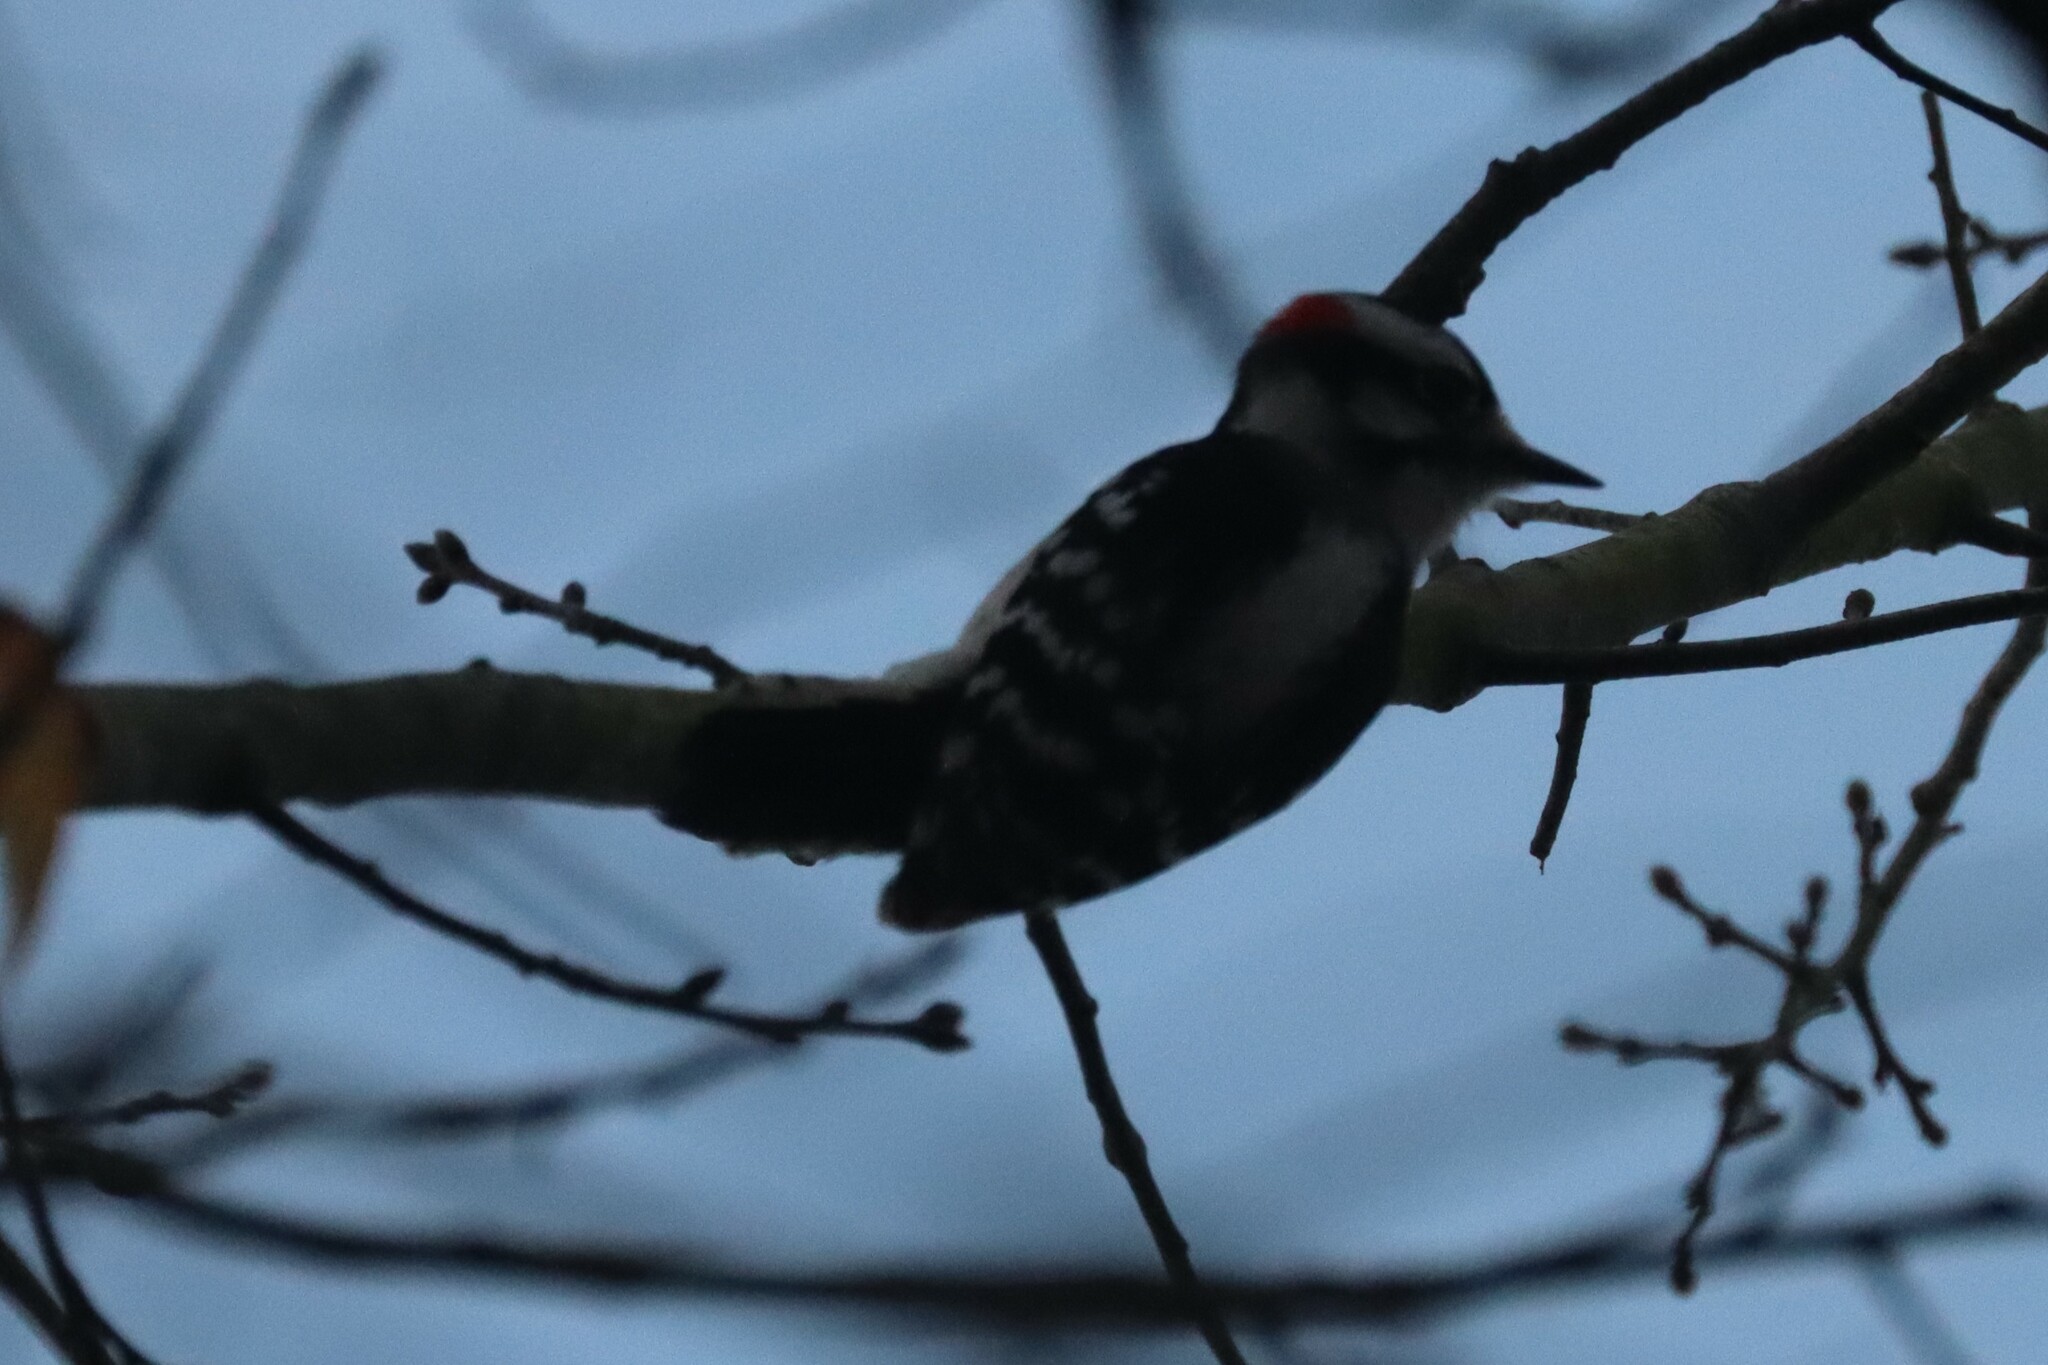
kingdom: Animalia
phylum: Chordata
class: Aves
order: Piciformes
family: Picidae
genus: Dryobates
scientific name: Dryobates pubescens
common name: Downy woodpecker
